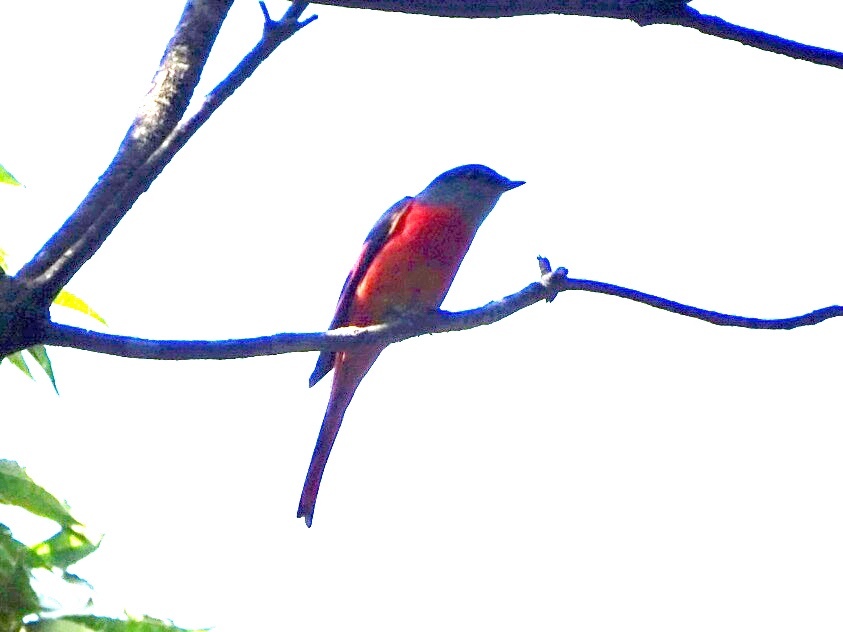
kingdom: Animalia
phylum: Chordata
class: Aves
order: Passeriformes
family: Campephagidae
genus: Pericrocotus
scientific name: Pericrocotus solaris
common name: Grey-chinned minivet
